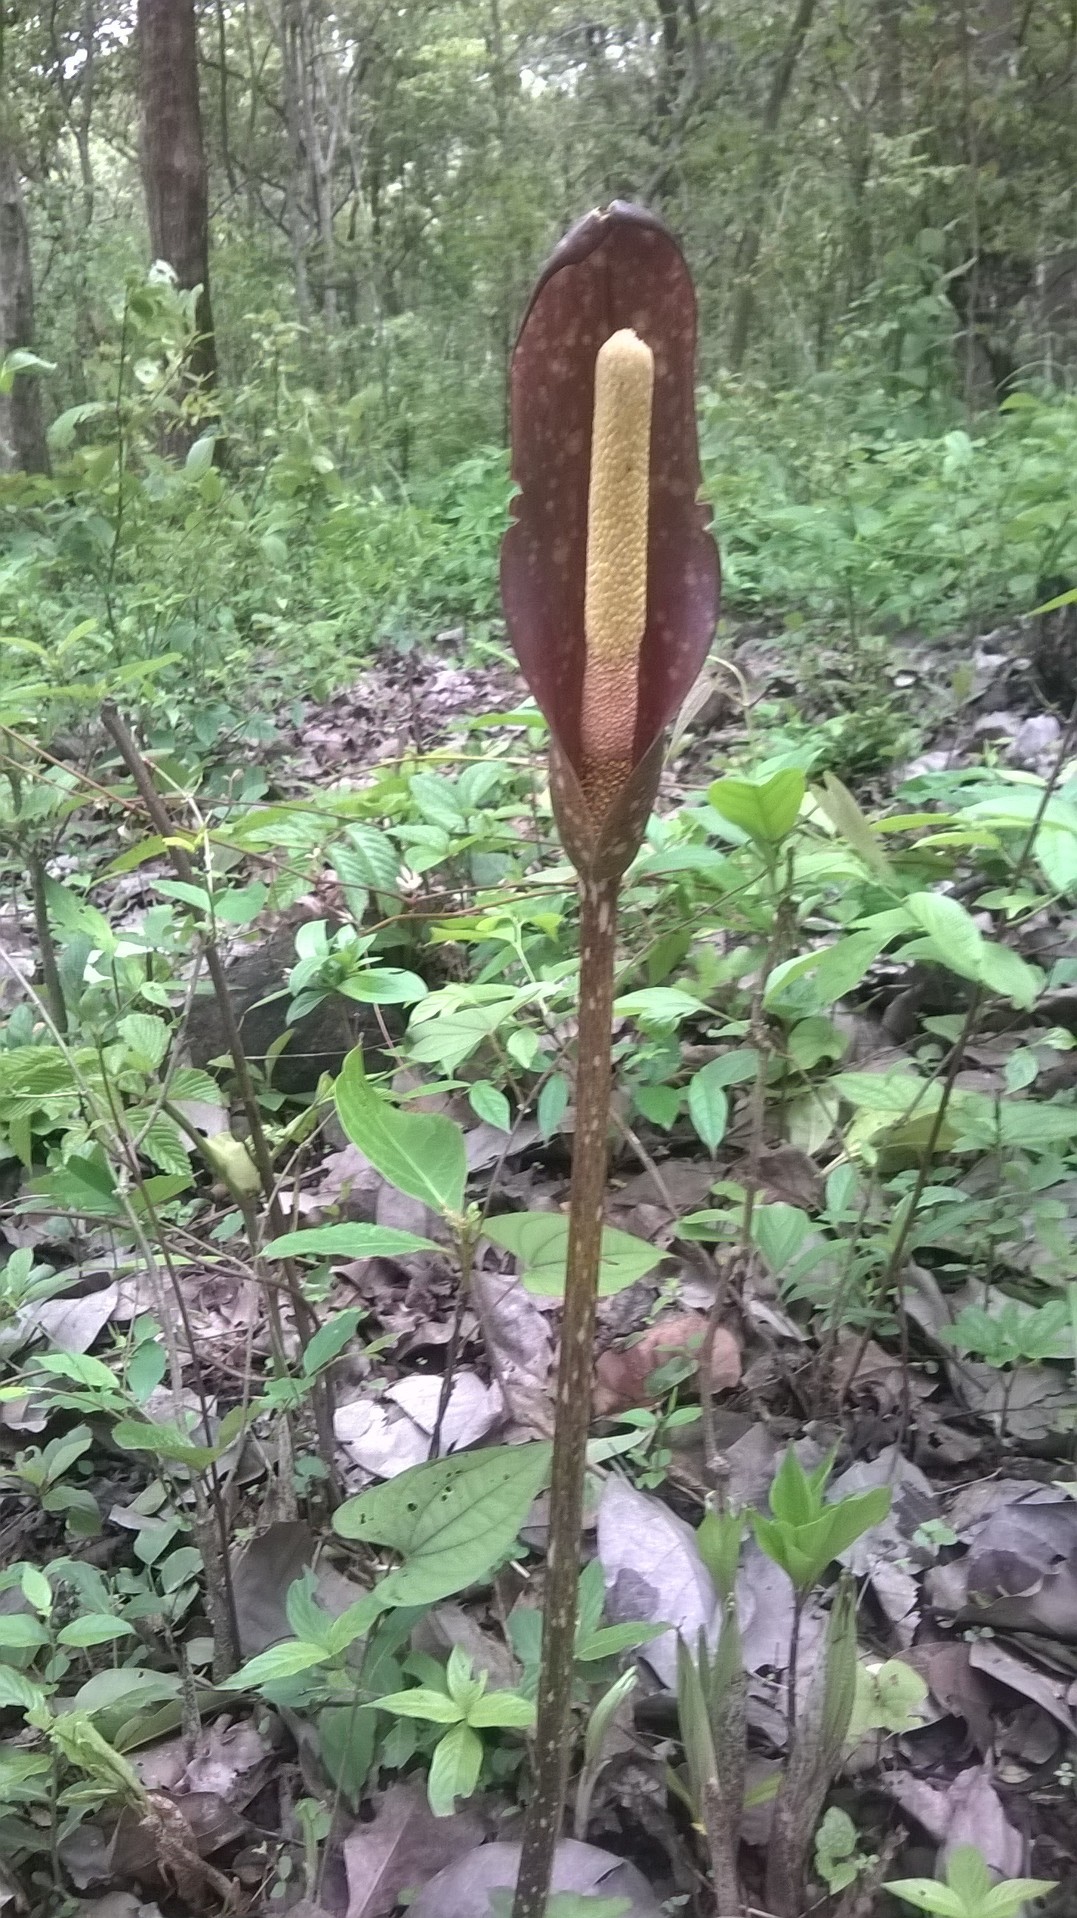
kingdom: Plantae
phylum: Tracheophyta
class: Liliopsida
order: Alismatales
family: Araceae
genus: Amorphophallus
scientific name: Amorphophallus commutatus
